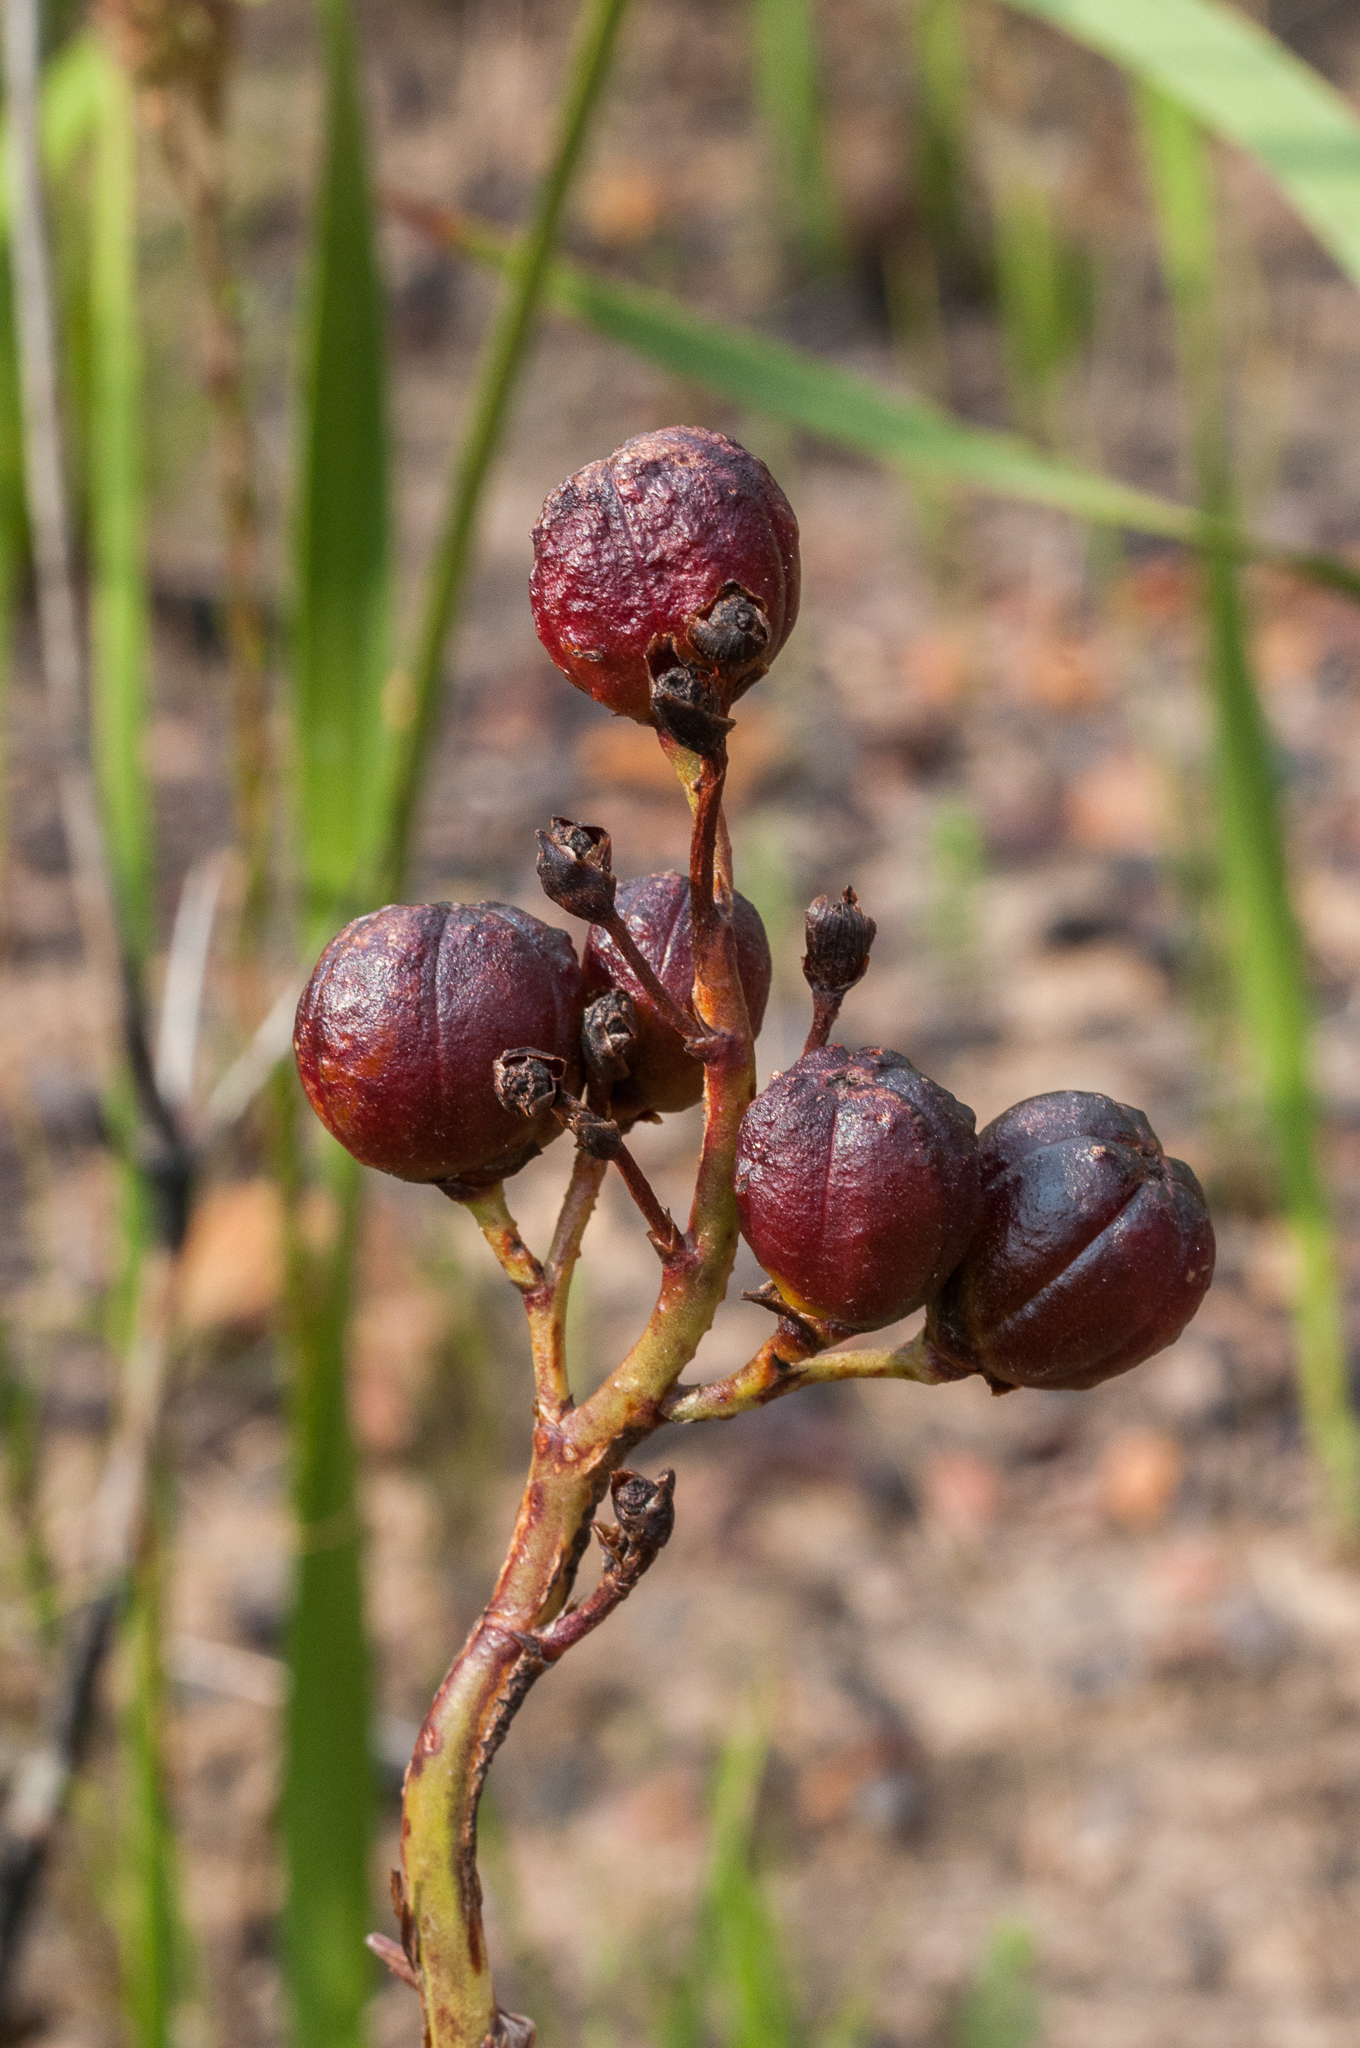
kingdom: Plantae
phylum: Tracheophyta
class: Liliopsida
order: Asparagales
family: Iridaceae
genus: Pillansia
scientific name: Pillansia templemannii
